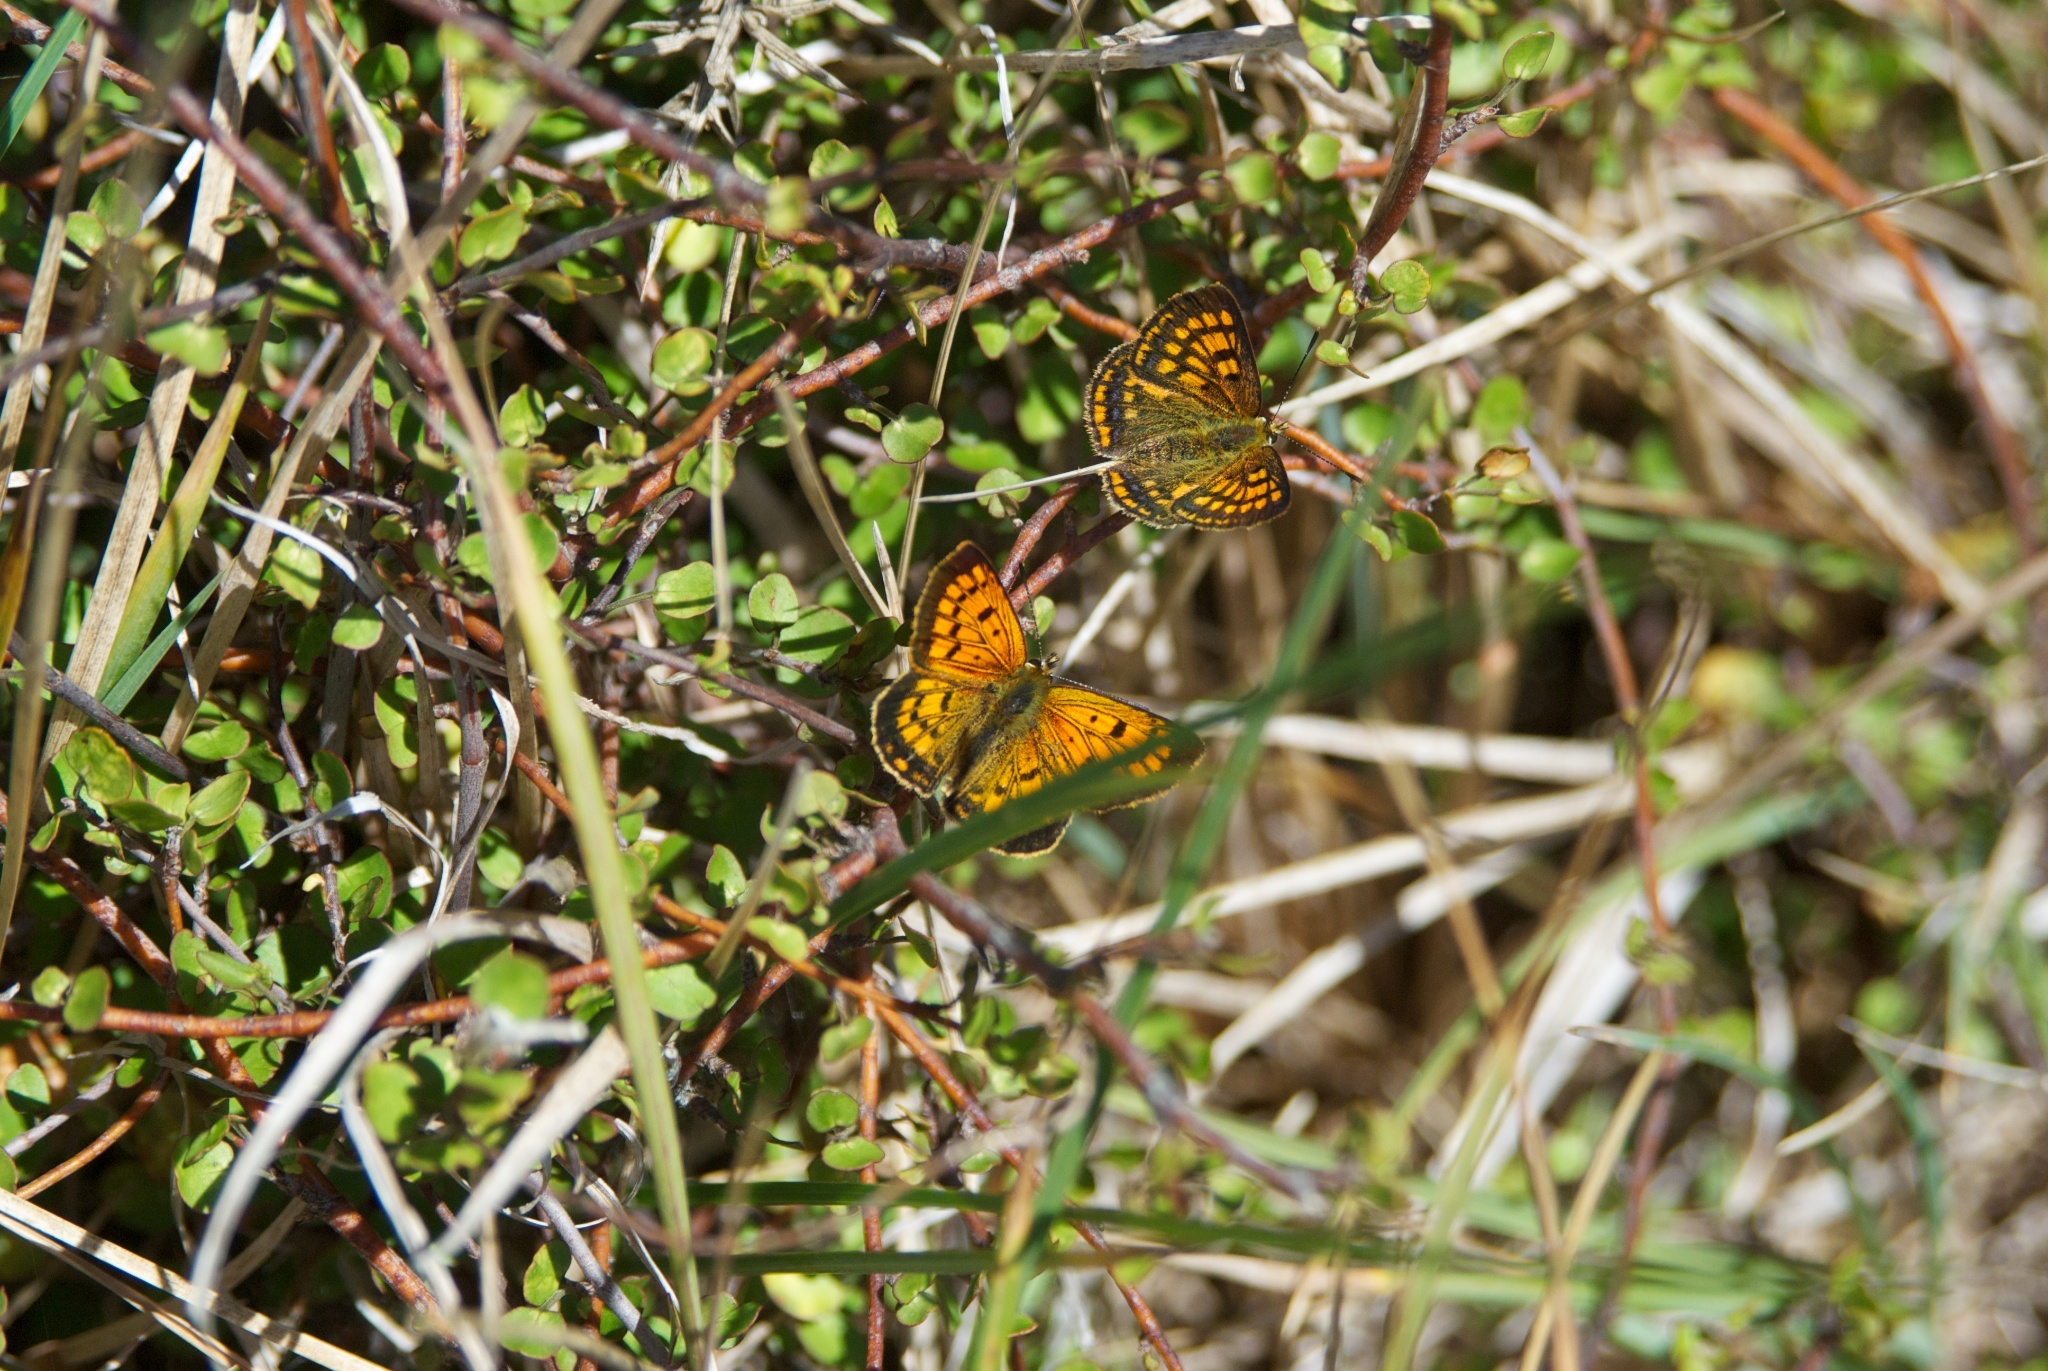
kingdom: Animalia
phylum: Arthropoda
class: Insecta
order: Lepidoptera
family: Lycaenidae
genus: Lycaena
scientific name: Lycaena salustius
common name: North island coastal copper
